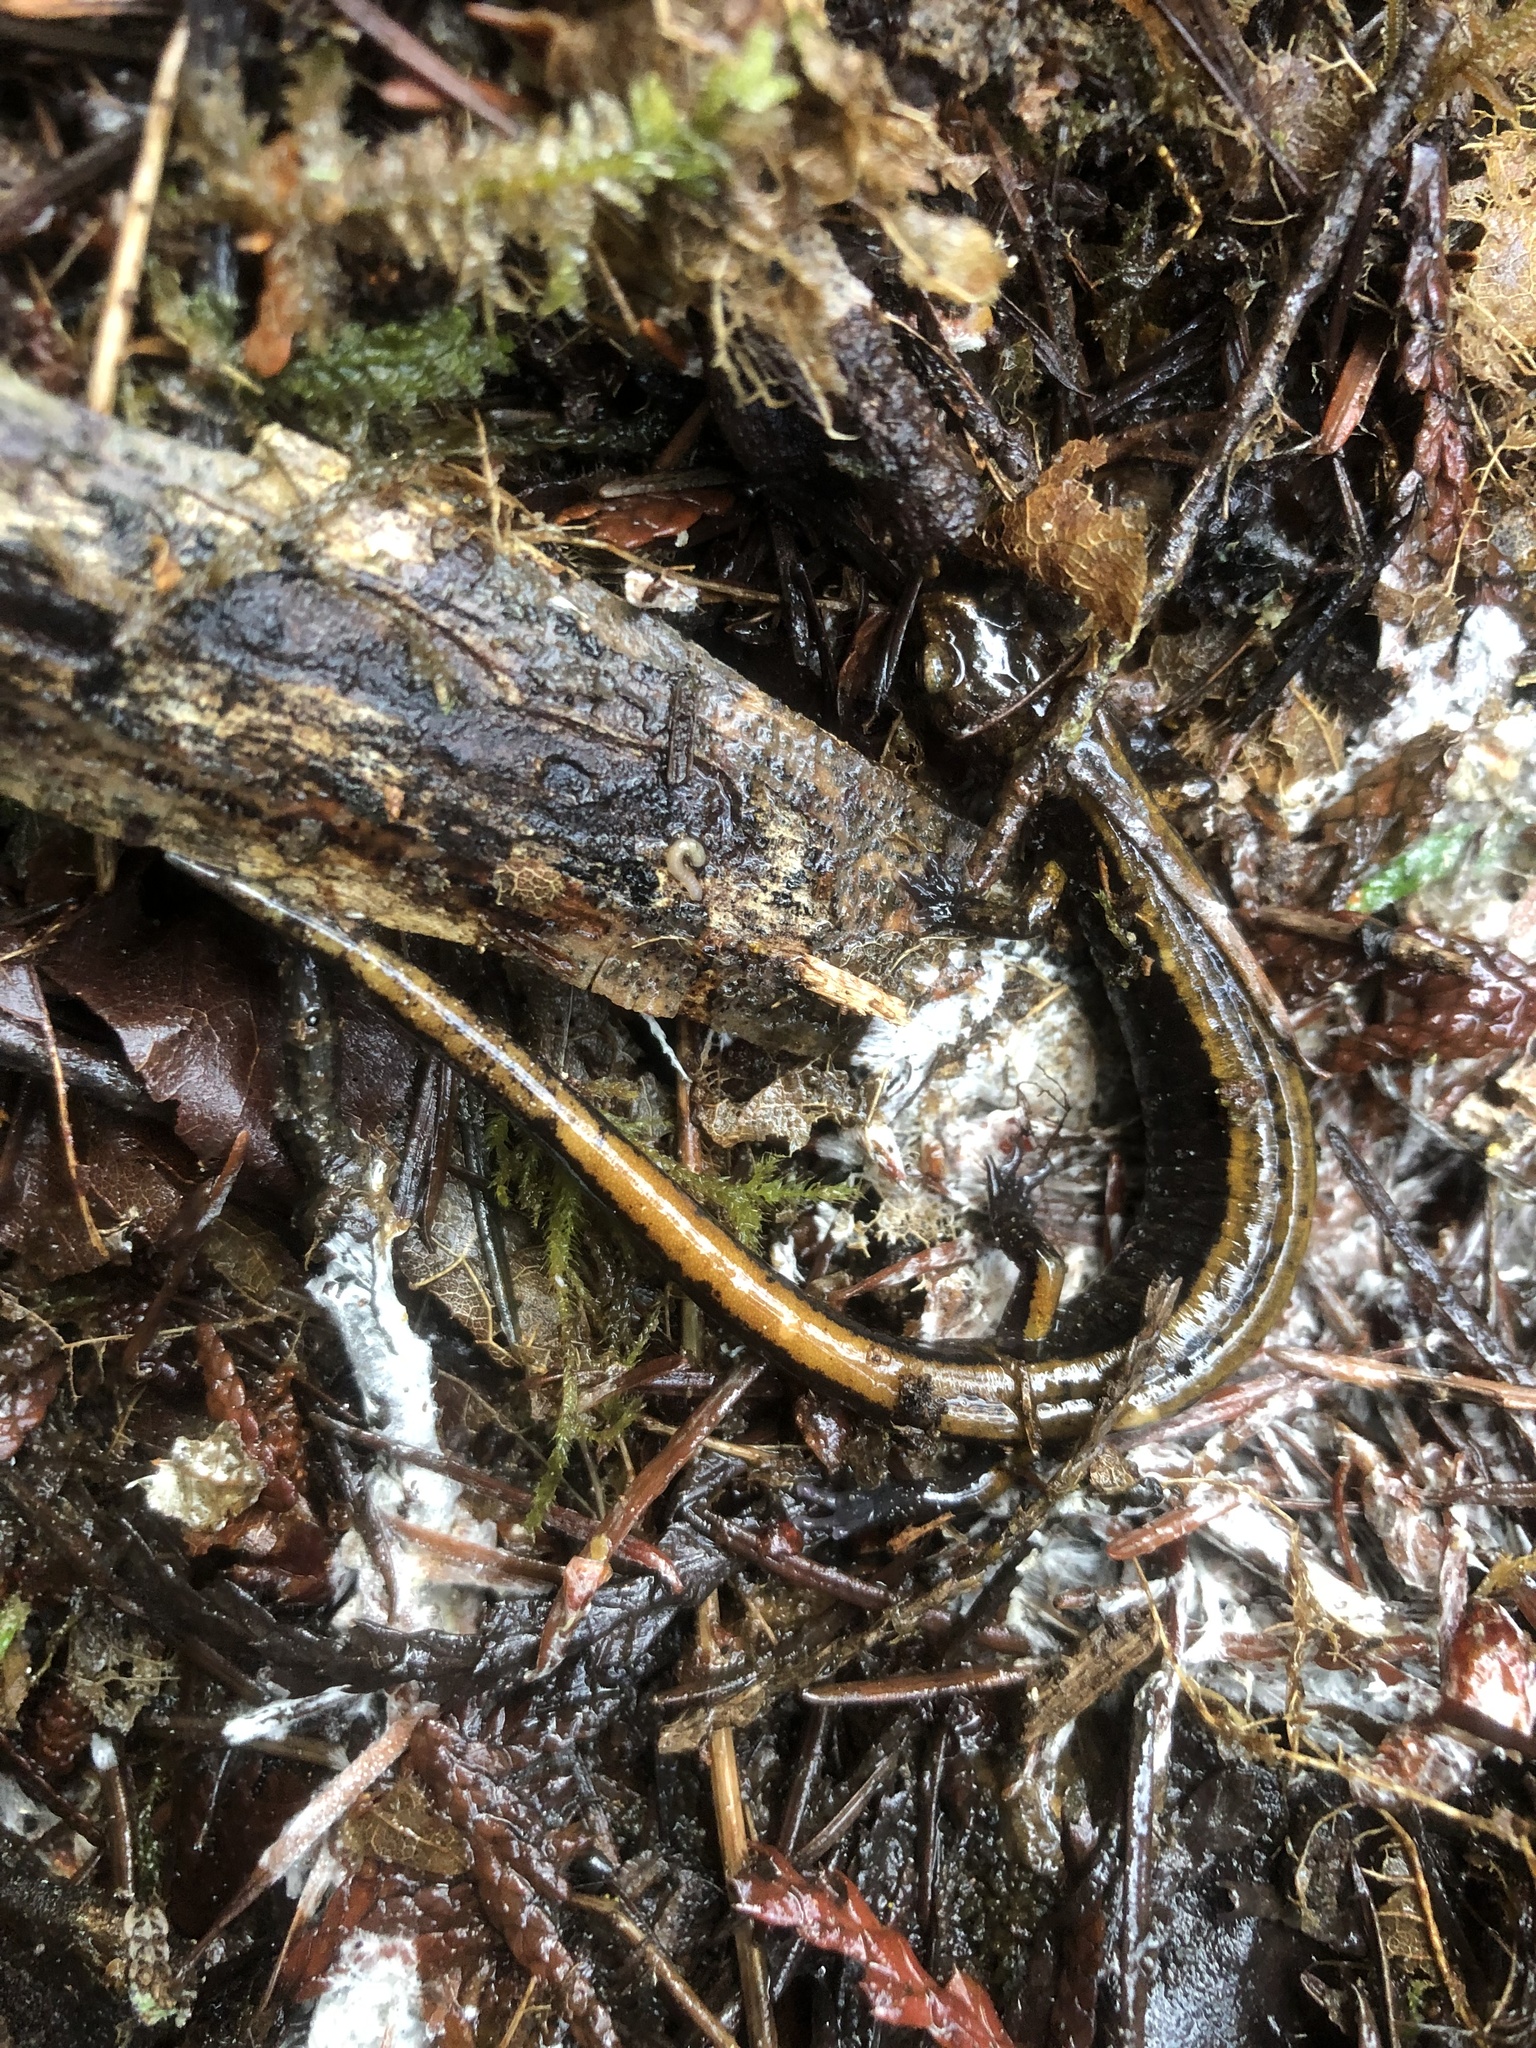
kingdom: Animalia
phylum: Chordata
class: Amphibia
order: Caudata
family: Plethodontidae
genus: Plethodon
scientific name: Plethodon vehiculum
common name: Western red-backed salamander
